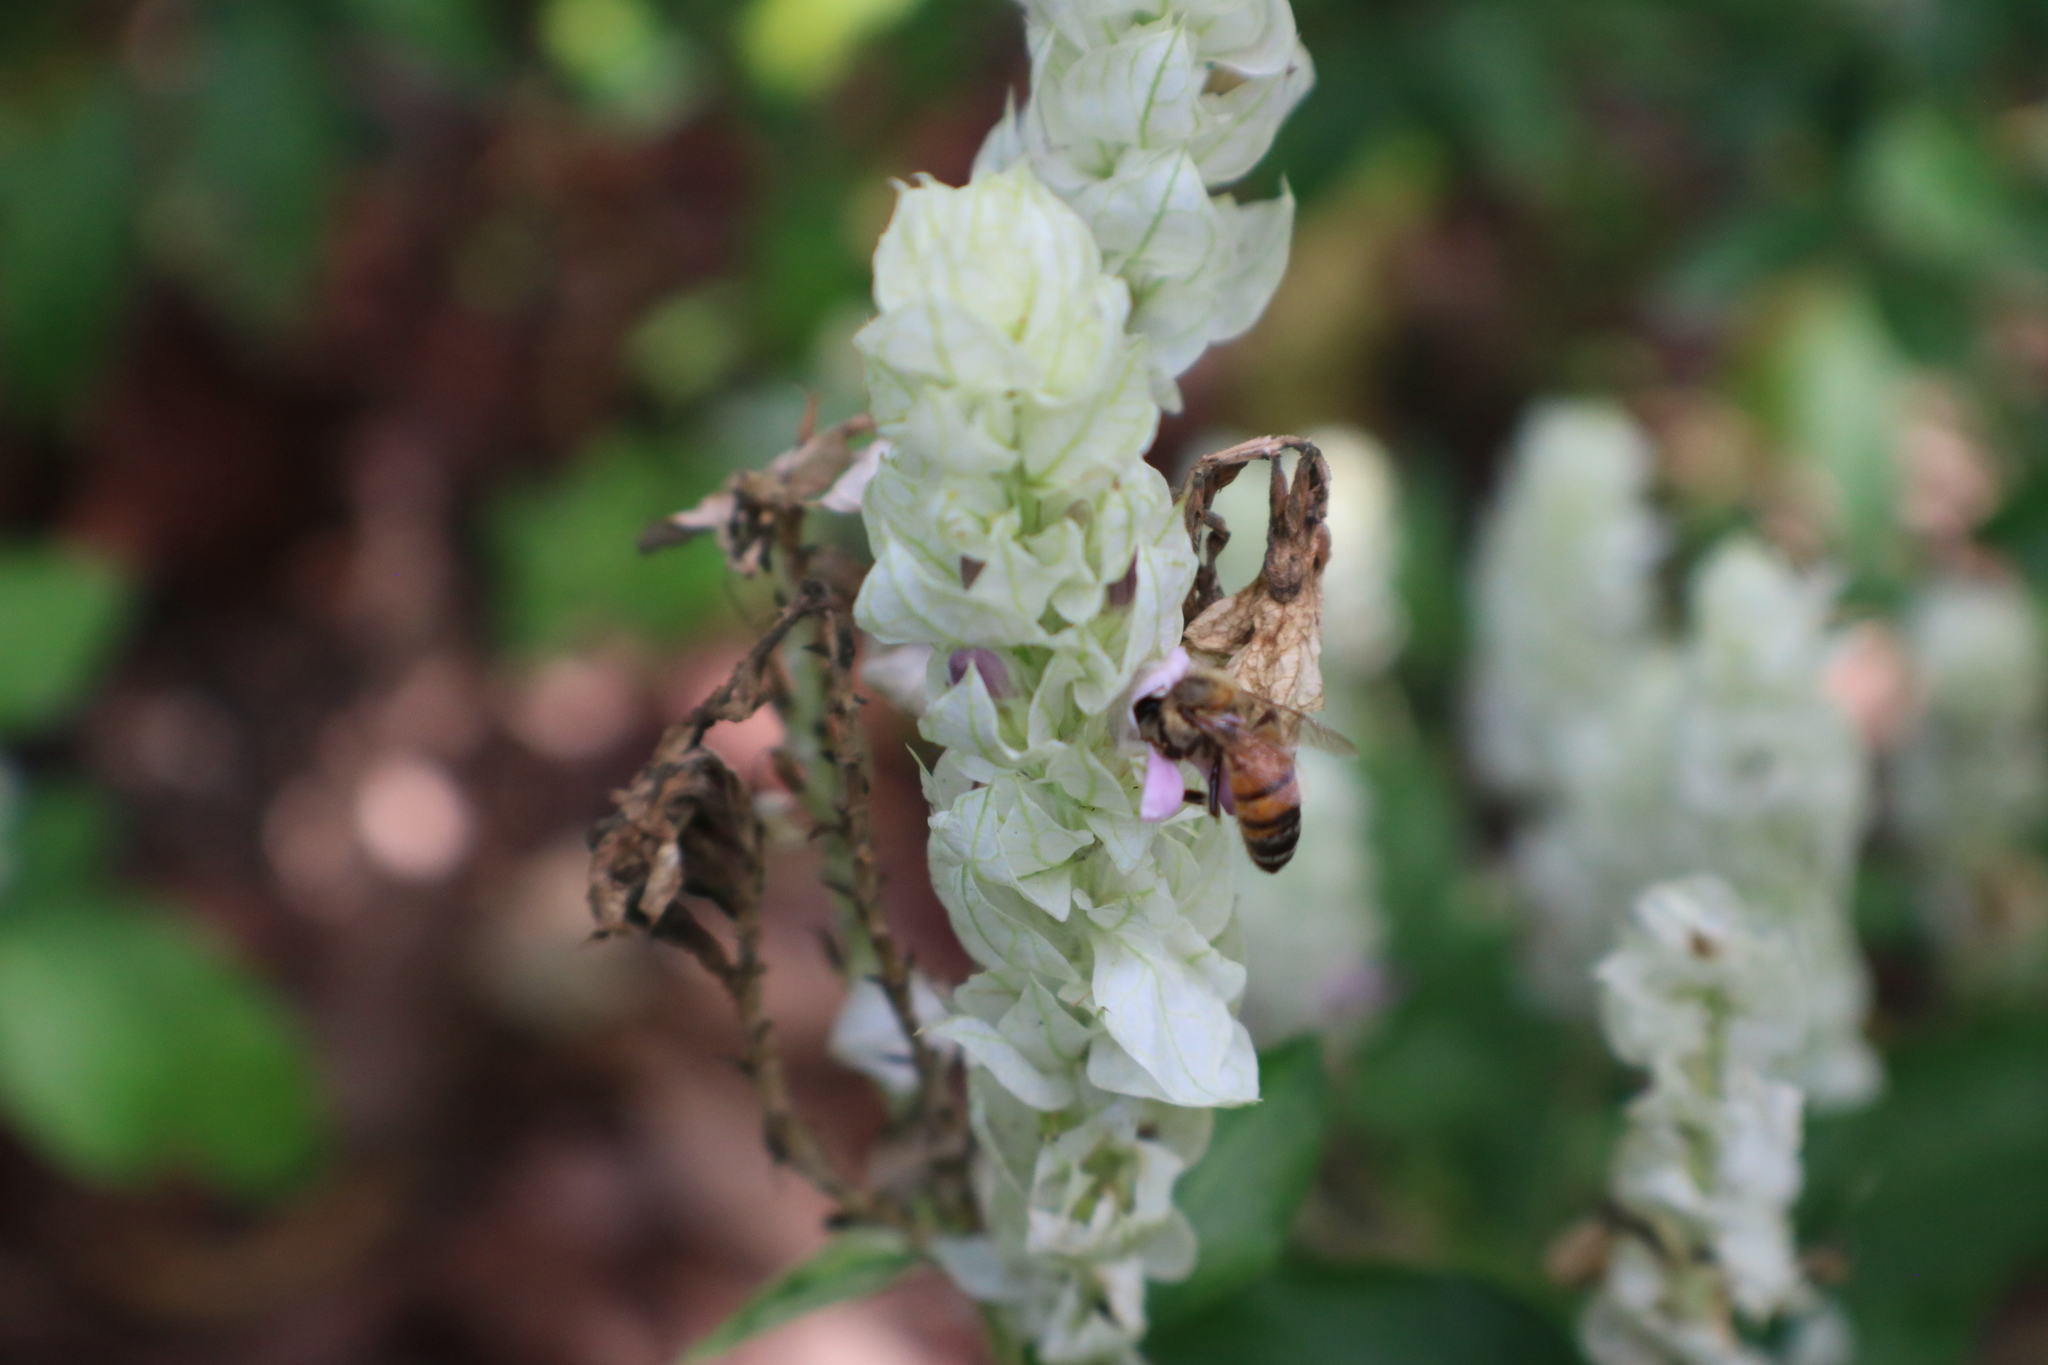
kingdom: Animalia
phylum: Arthropoda
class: Insecta
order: Hymenoptera
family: Apidae
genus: Apis
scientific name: Apis mellifera
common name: Honey bee
